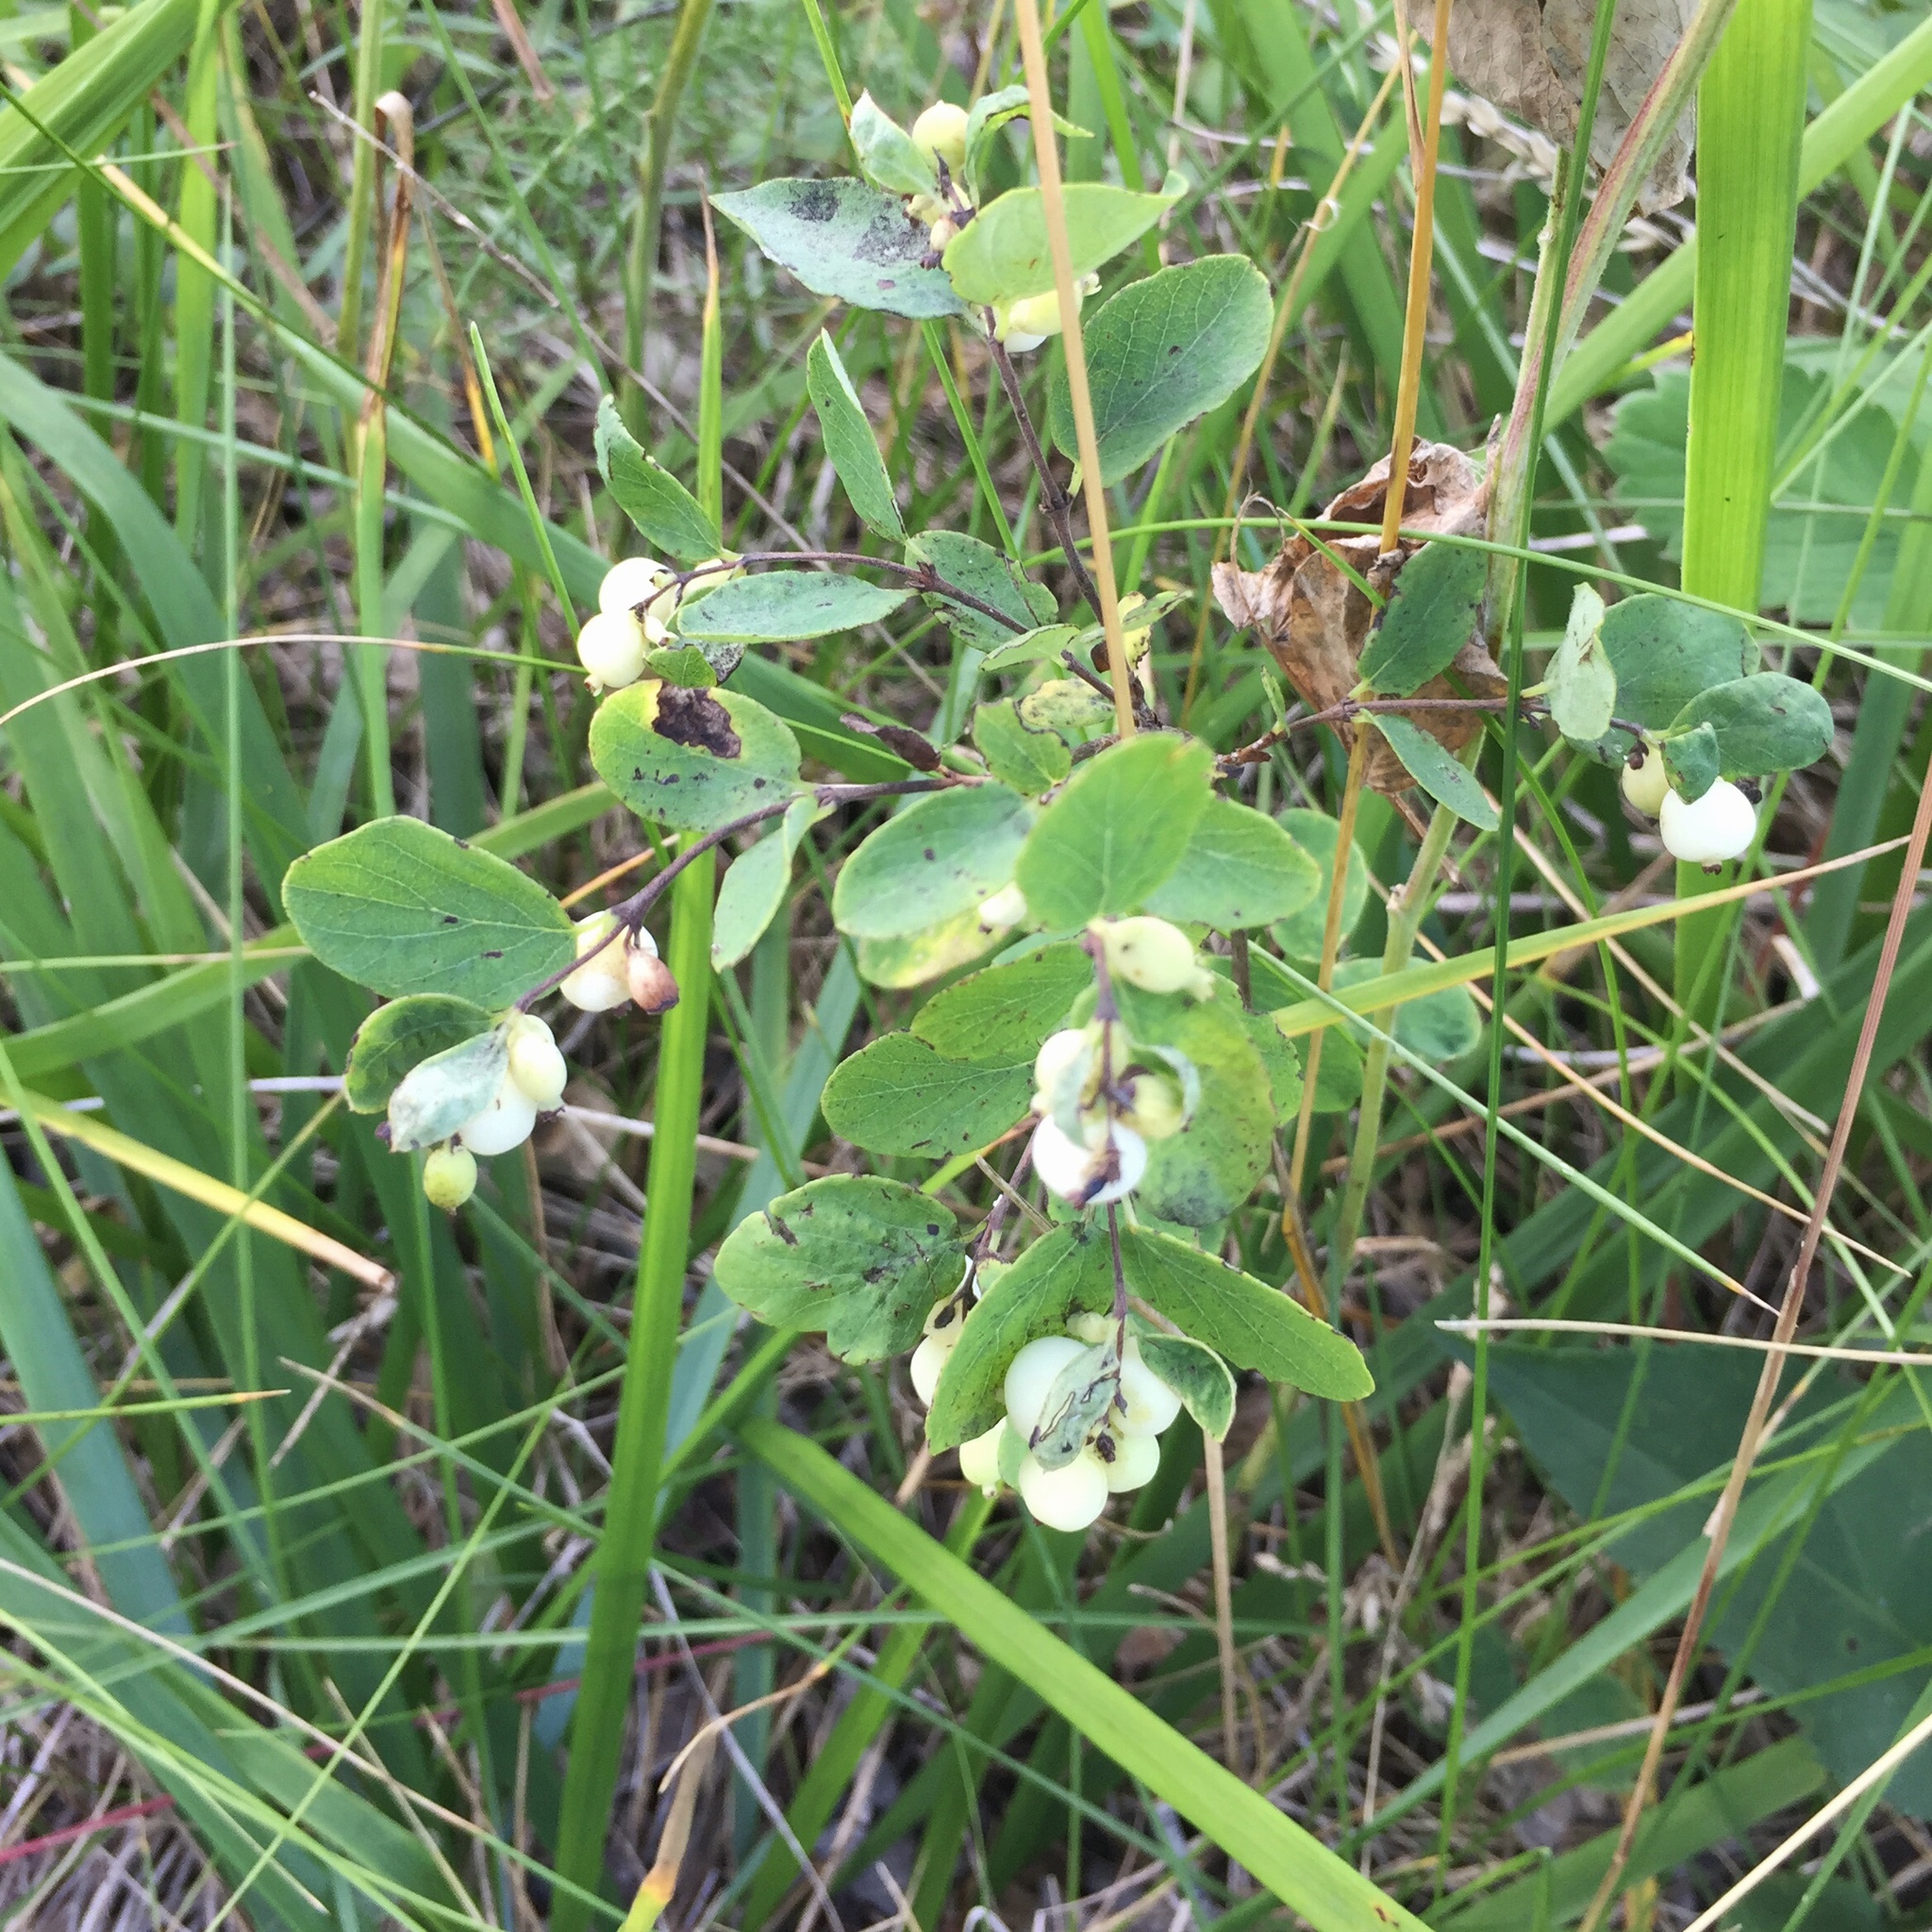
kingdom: Plantae
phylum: Tracheophyta
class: Magnoliopsida
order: Dipsacales
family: Caprifoliaceae
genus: Symphoricarpos
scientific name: Symphoricarpos occidentalis
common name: Wolfberry
